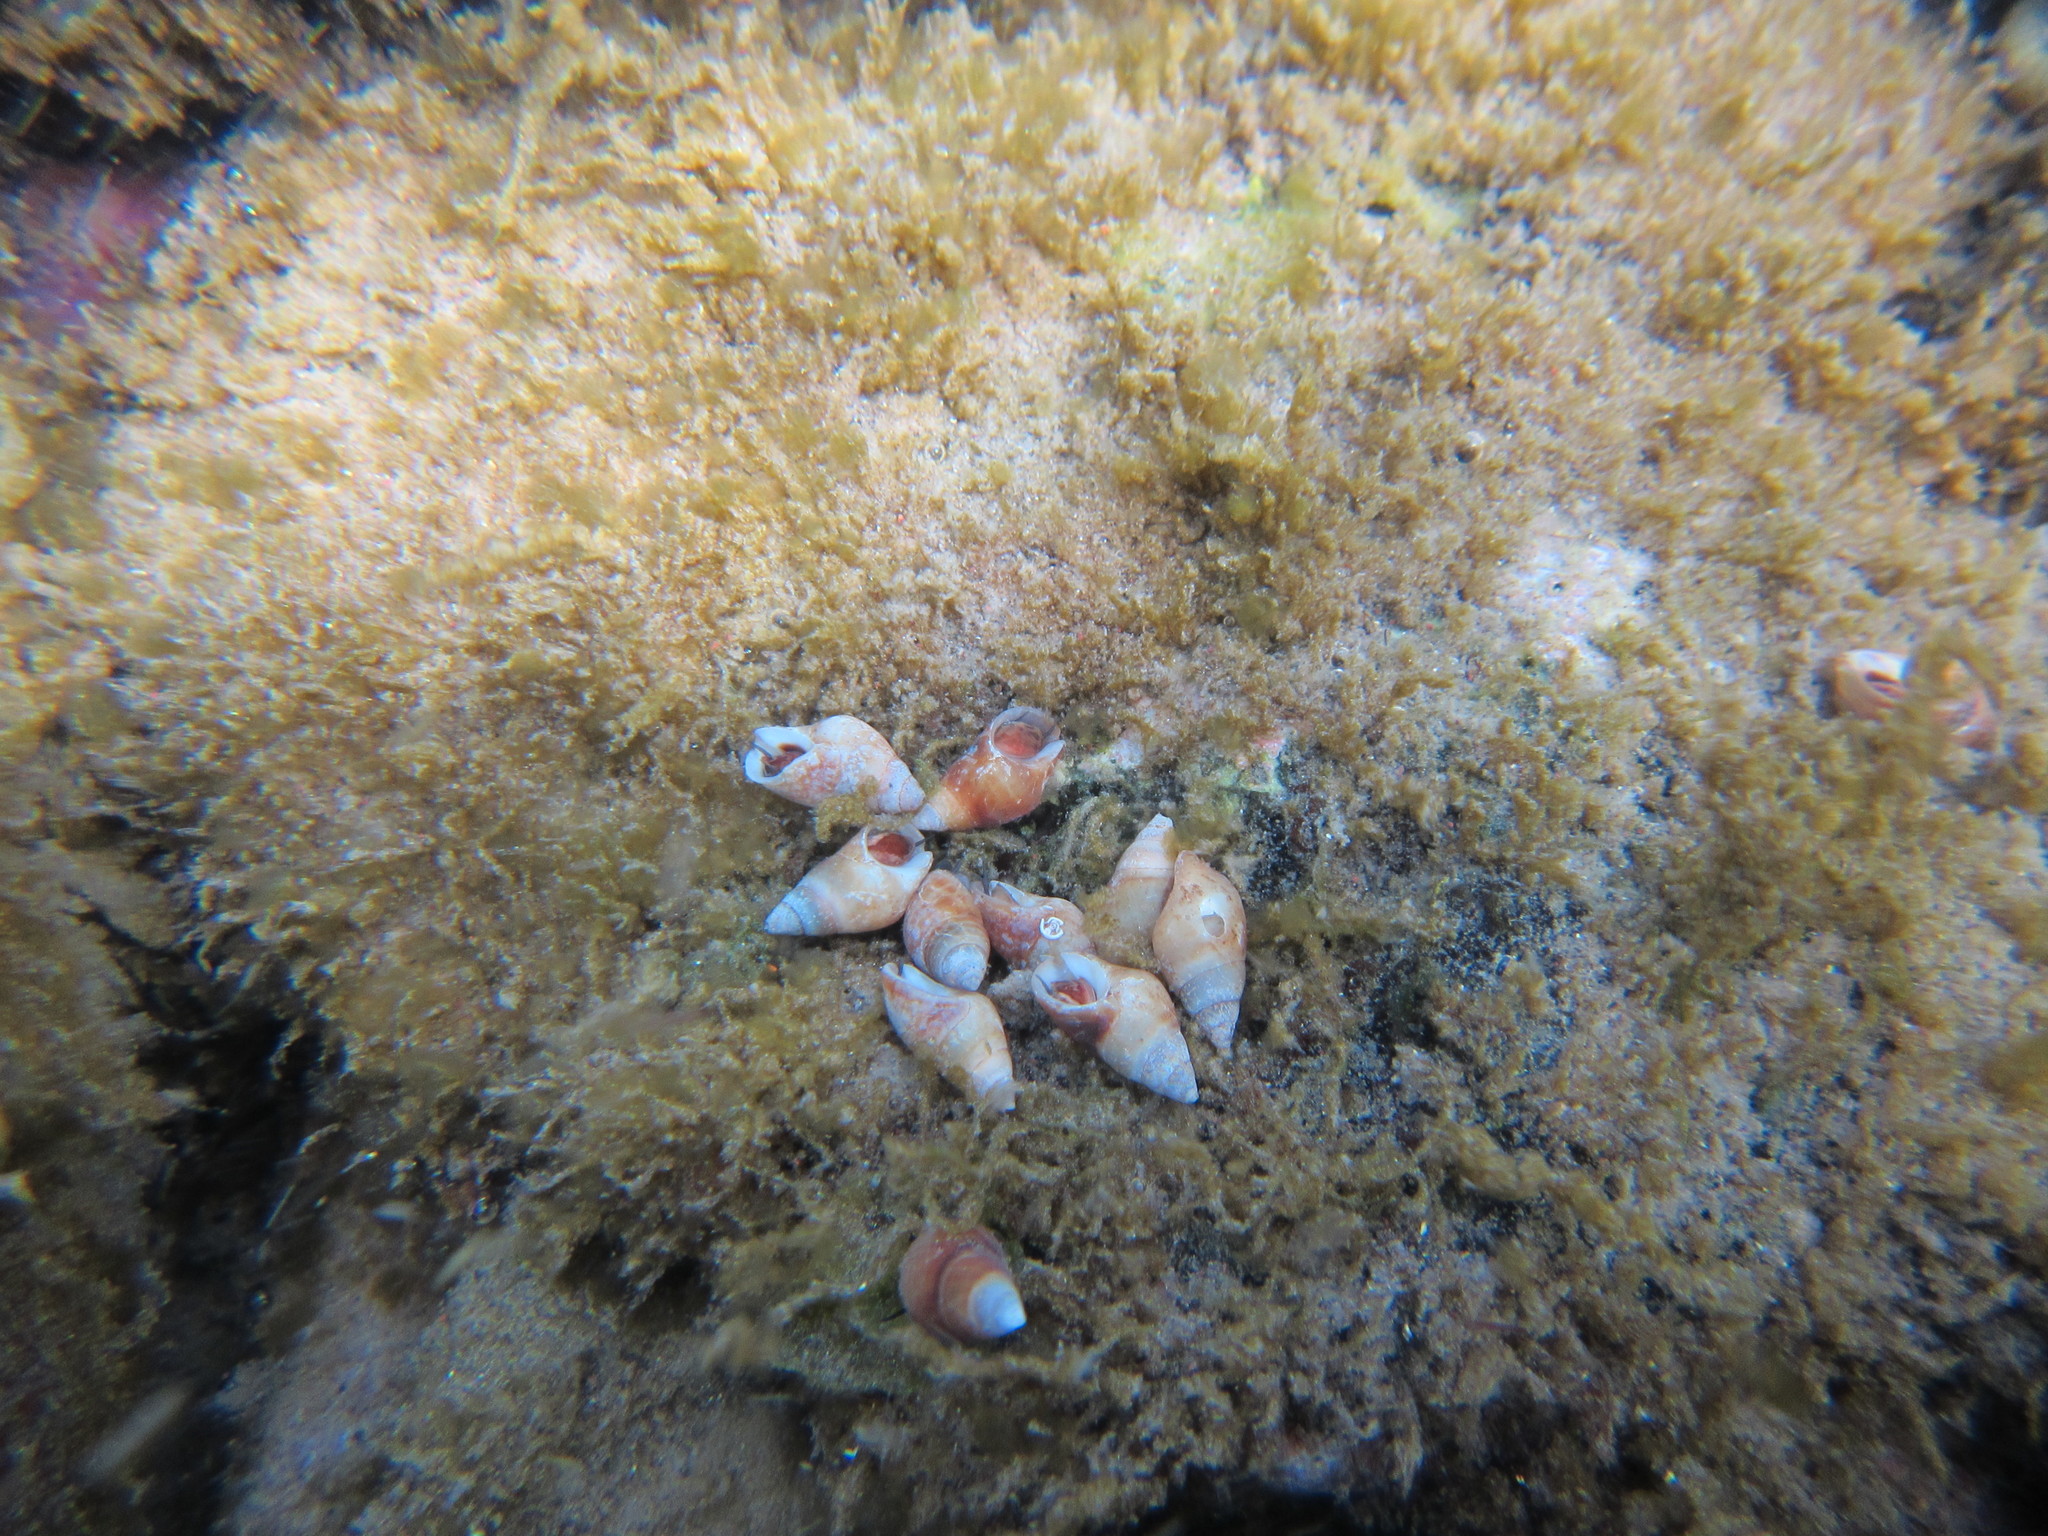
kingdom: Animalia
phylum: Mollusca
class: Gastropoda
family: Planaxidae
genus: Hinea
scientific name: Hinea akuana
